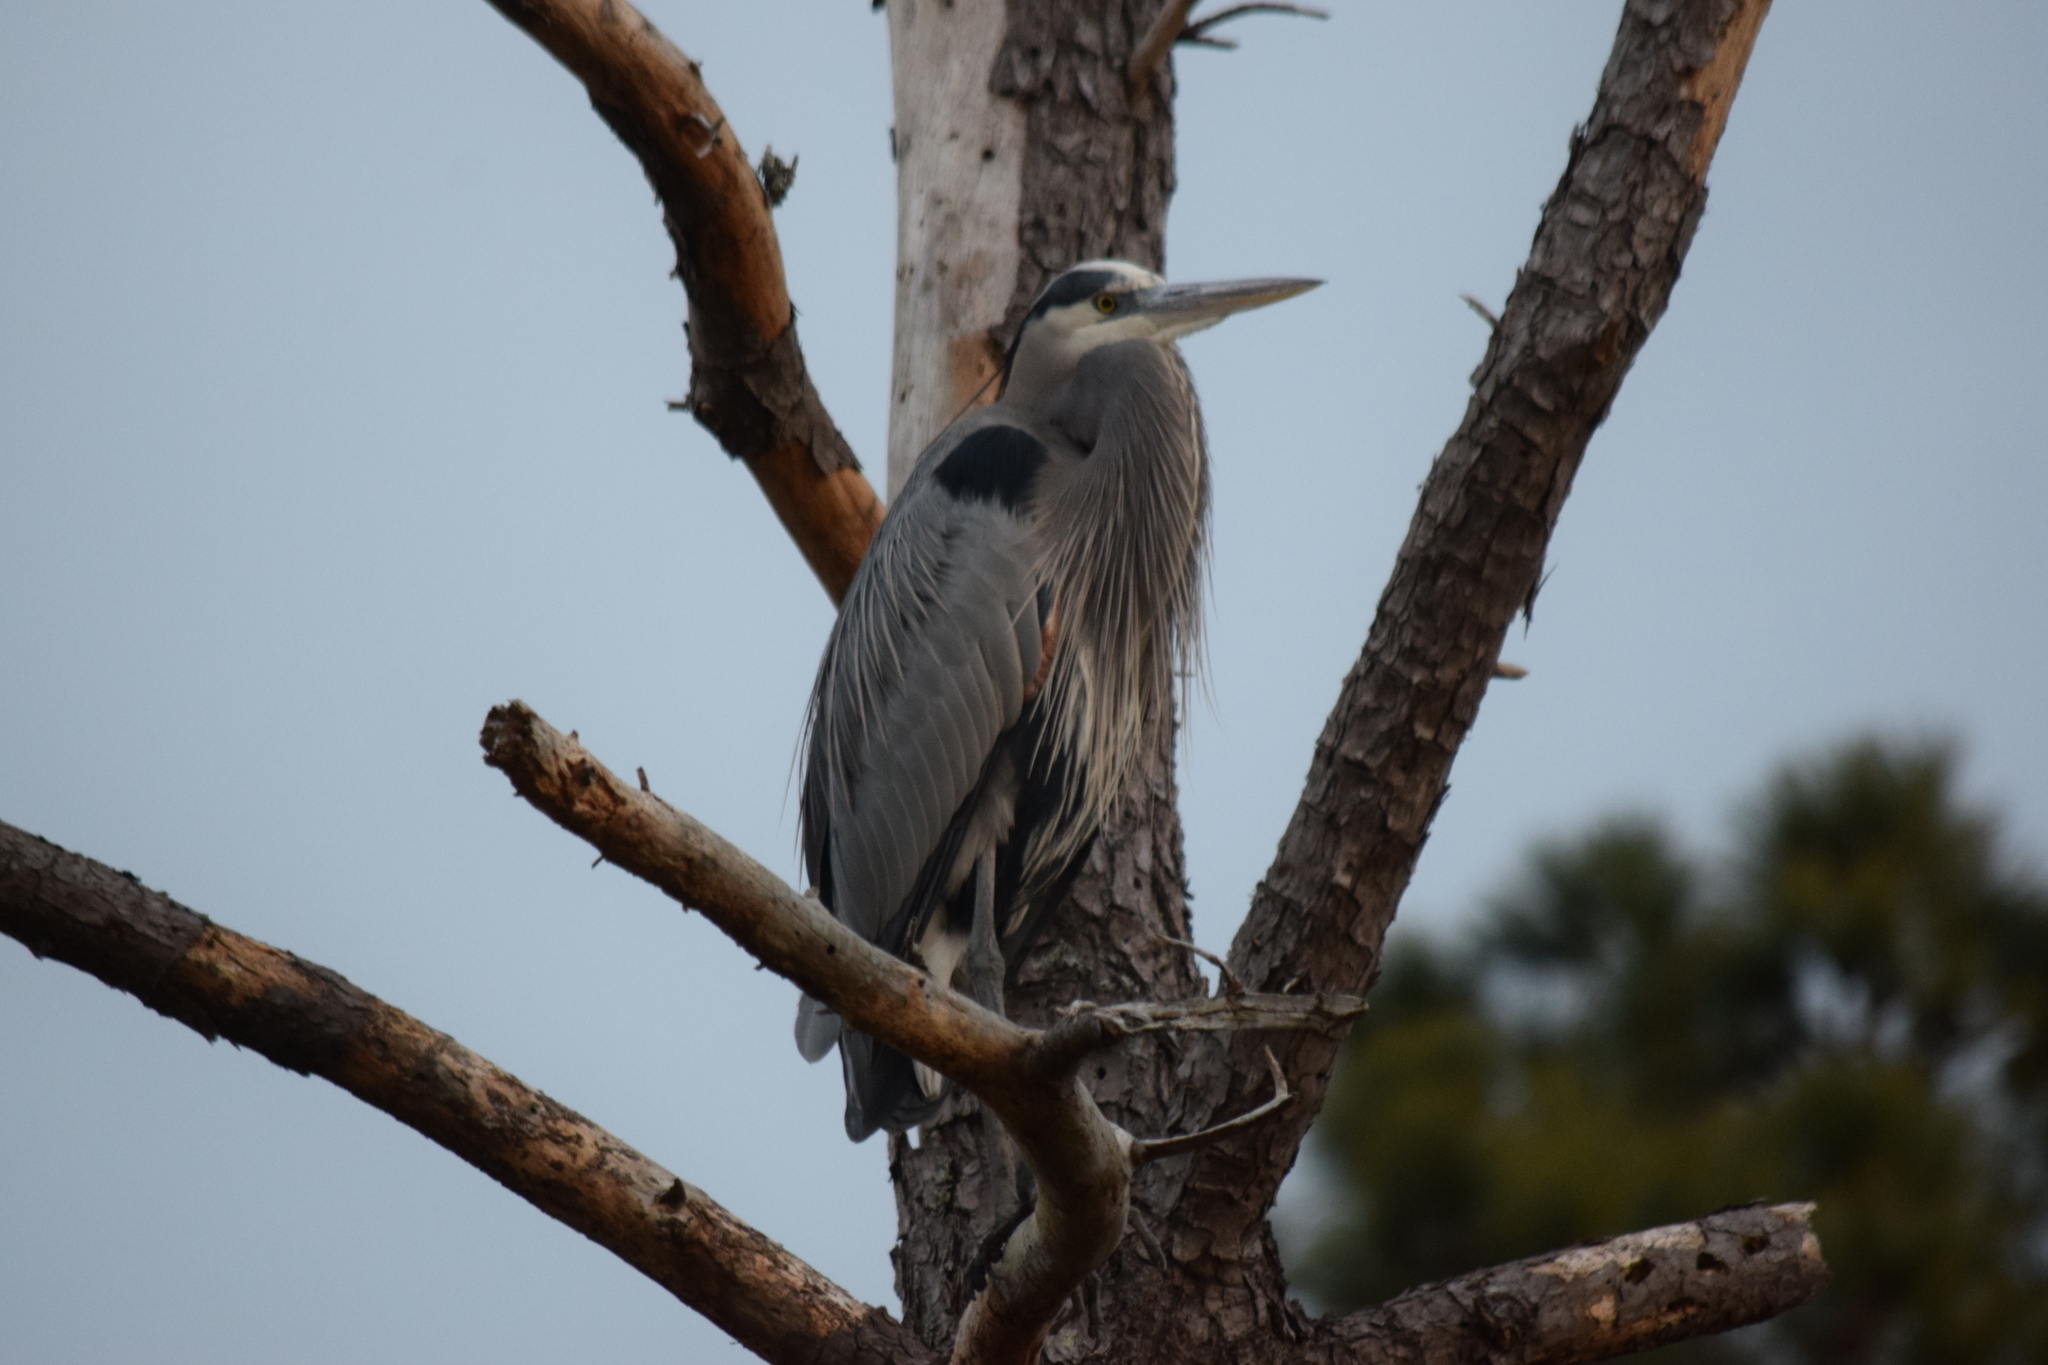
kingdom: Animalia
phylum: Chordata
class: Aves
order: Pelecaniformes
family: Ardeidae
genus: Ardea
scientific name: Ardea herodias
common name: Great blue heron
